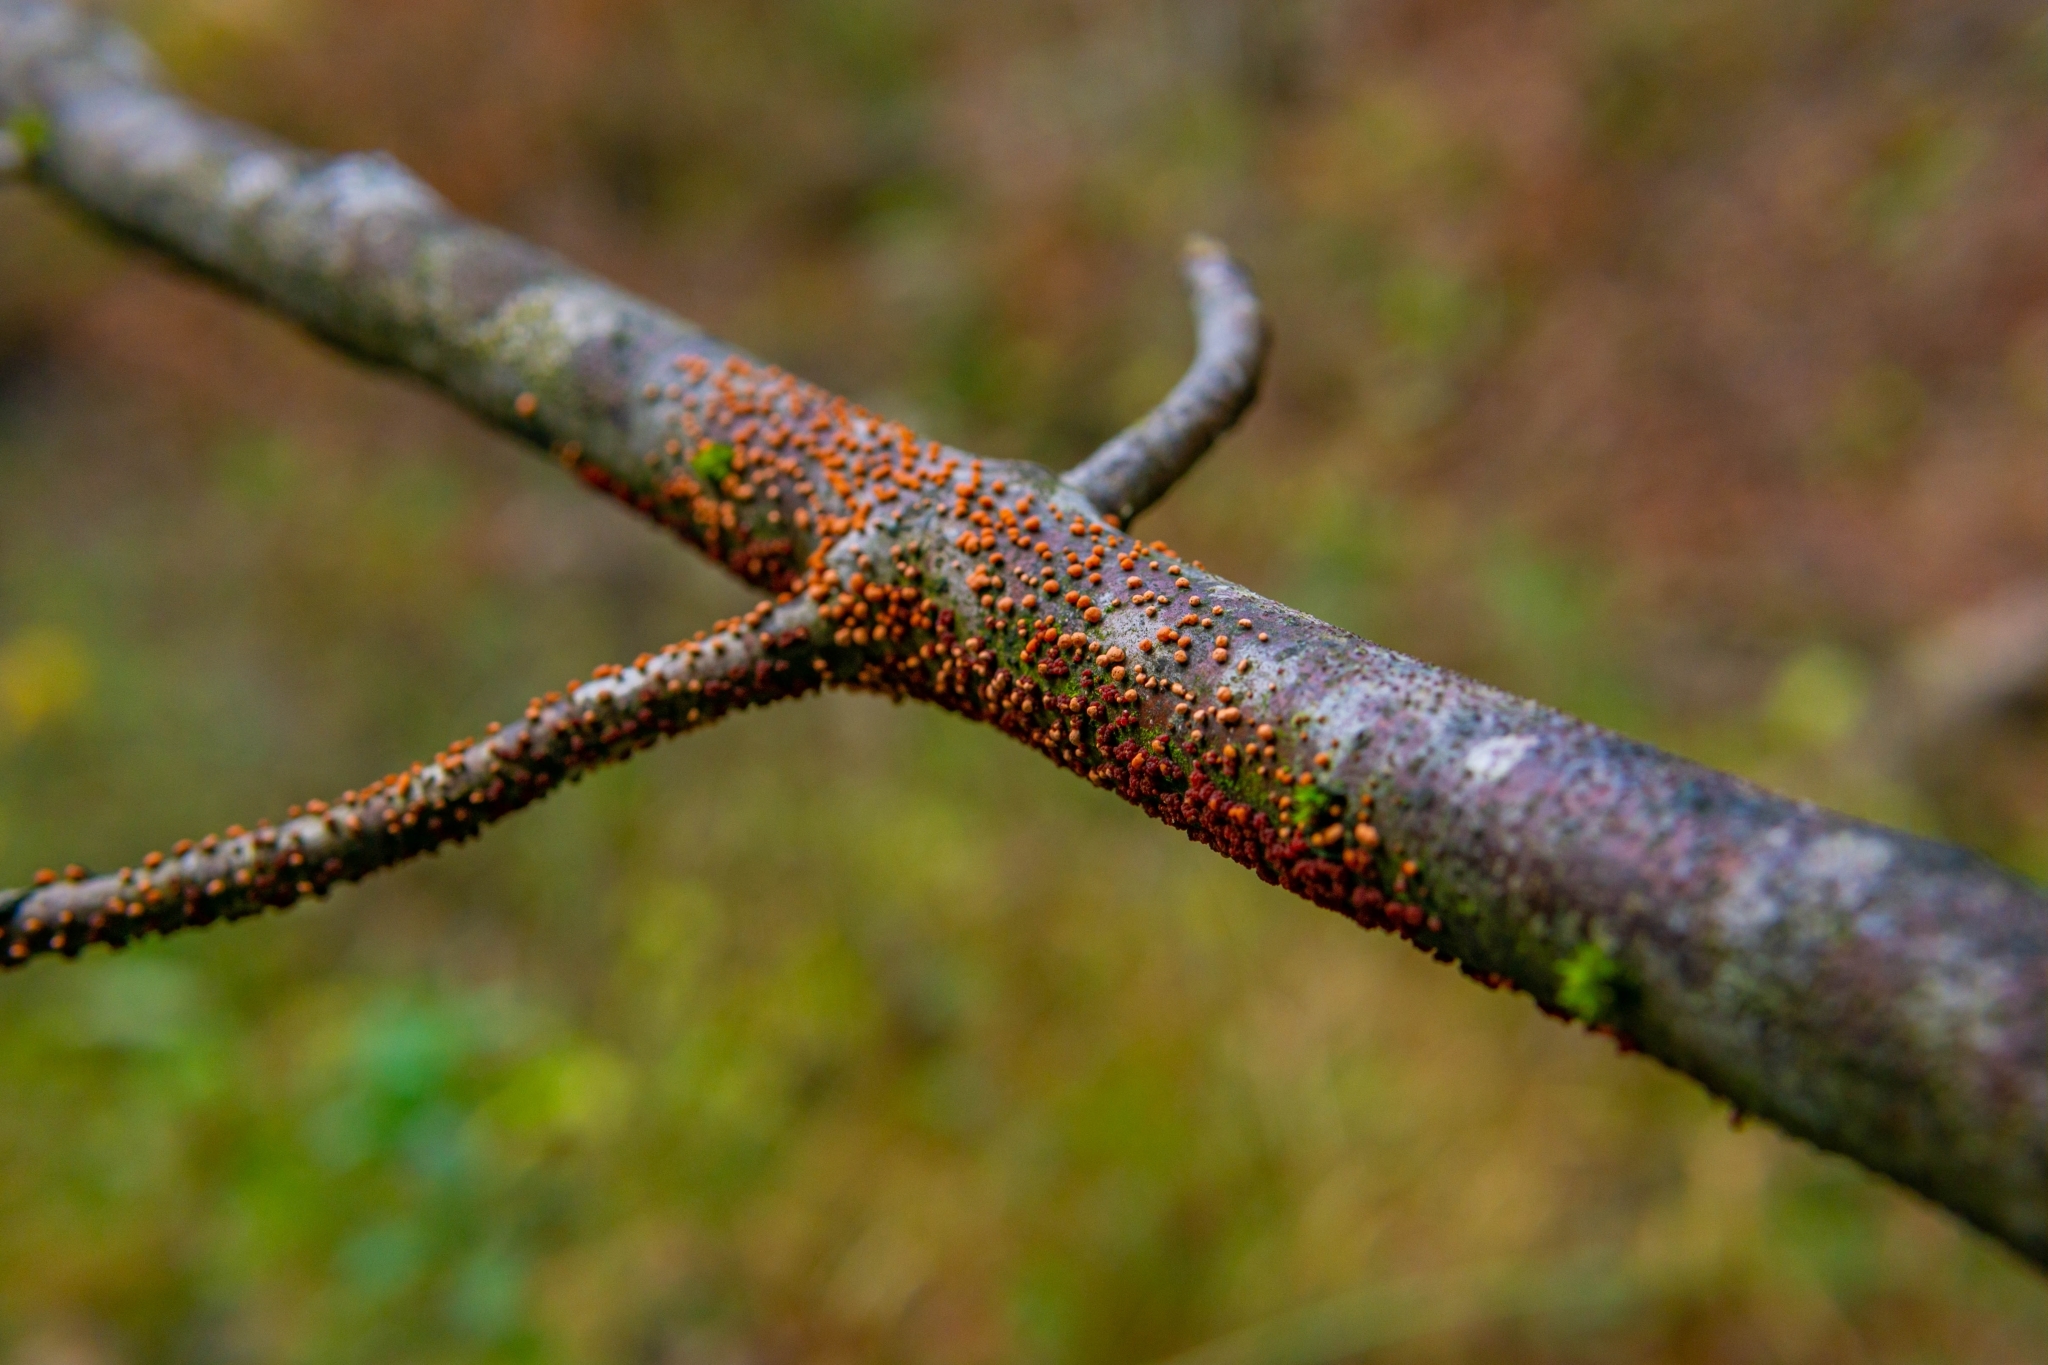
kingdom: Fungi
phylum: Ascomycota
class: Sordariomycetes
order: Hypocreales
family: Nectriaceae
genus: Nectria
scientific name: Nectria cinnabarina
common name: Coral spot
